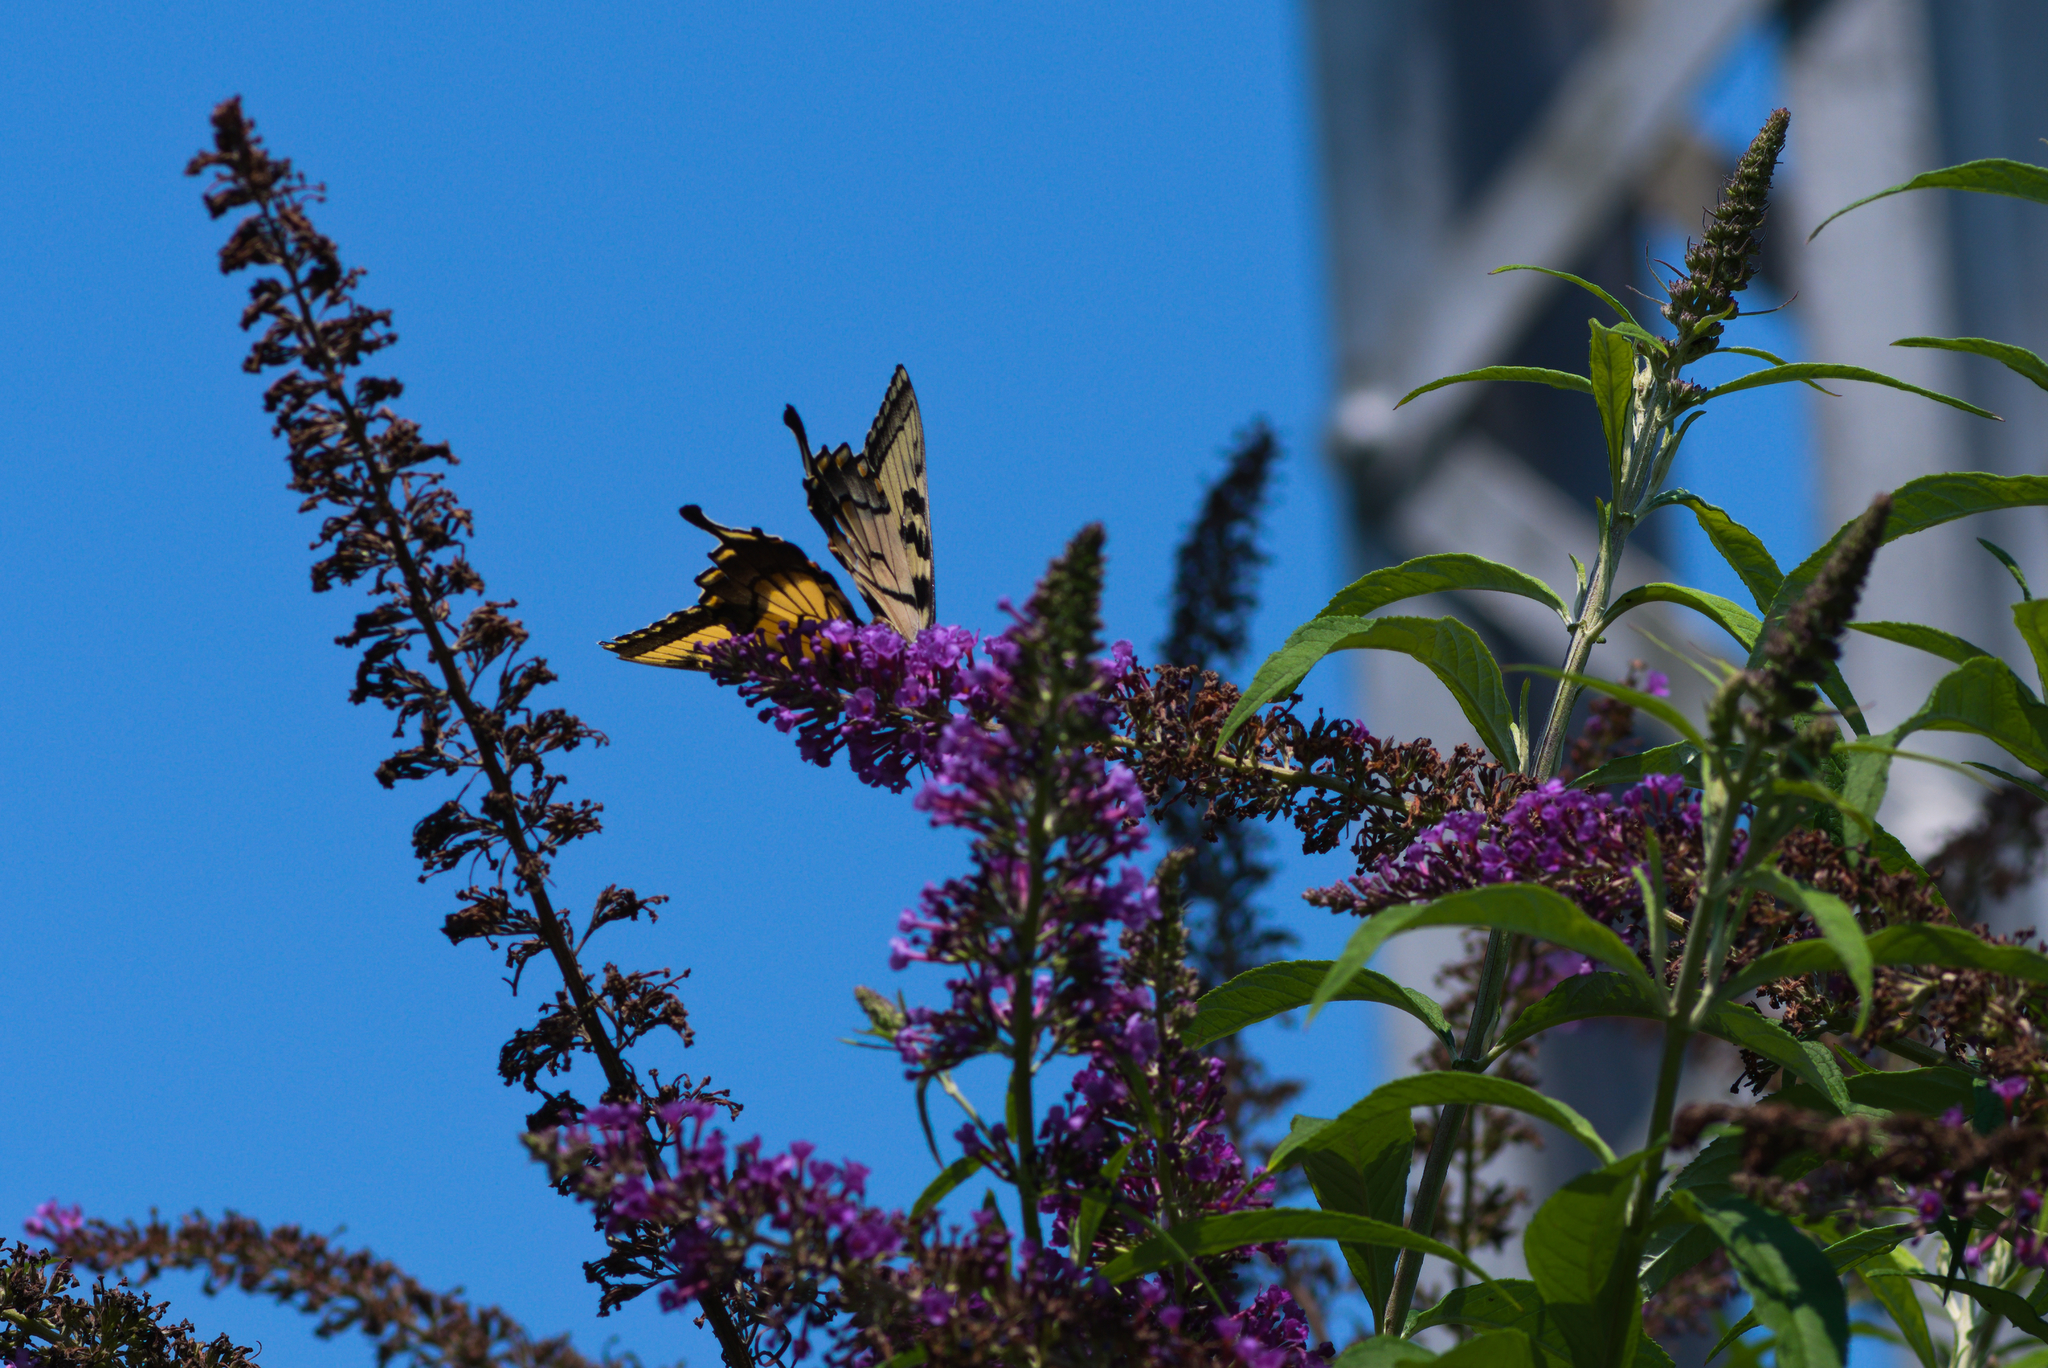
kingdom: Animalia
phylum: Arthropoda
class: Insecta
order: Lepidoptera
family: Papilionidae
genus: Papilio
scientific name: Papilio glaucus
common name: Tiger swallowtail
